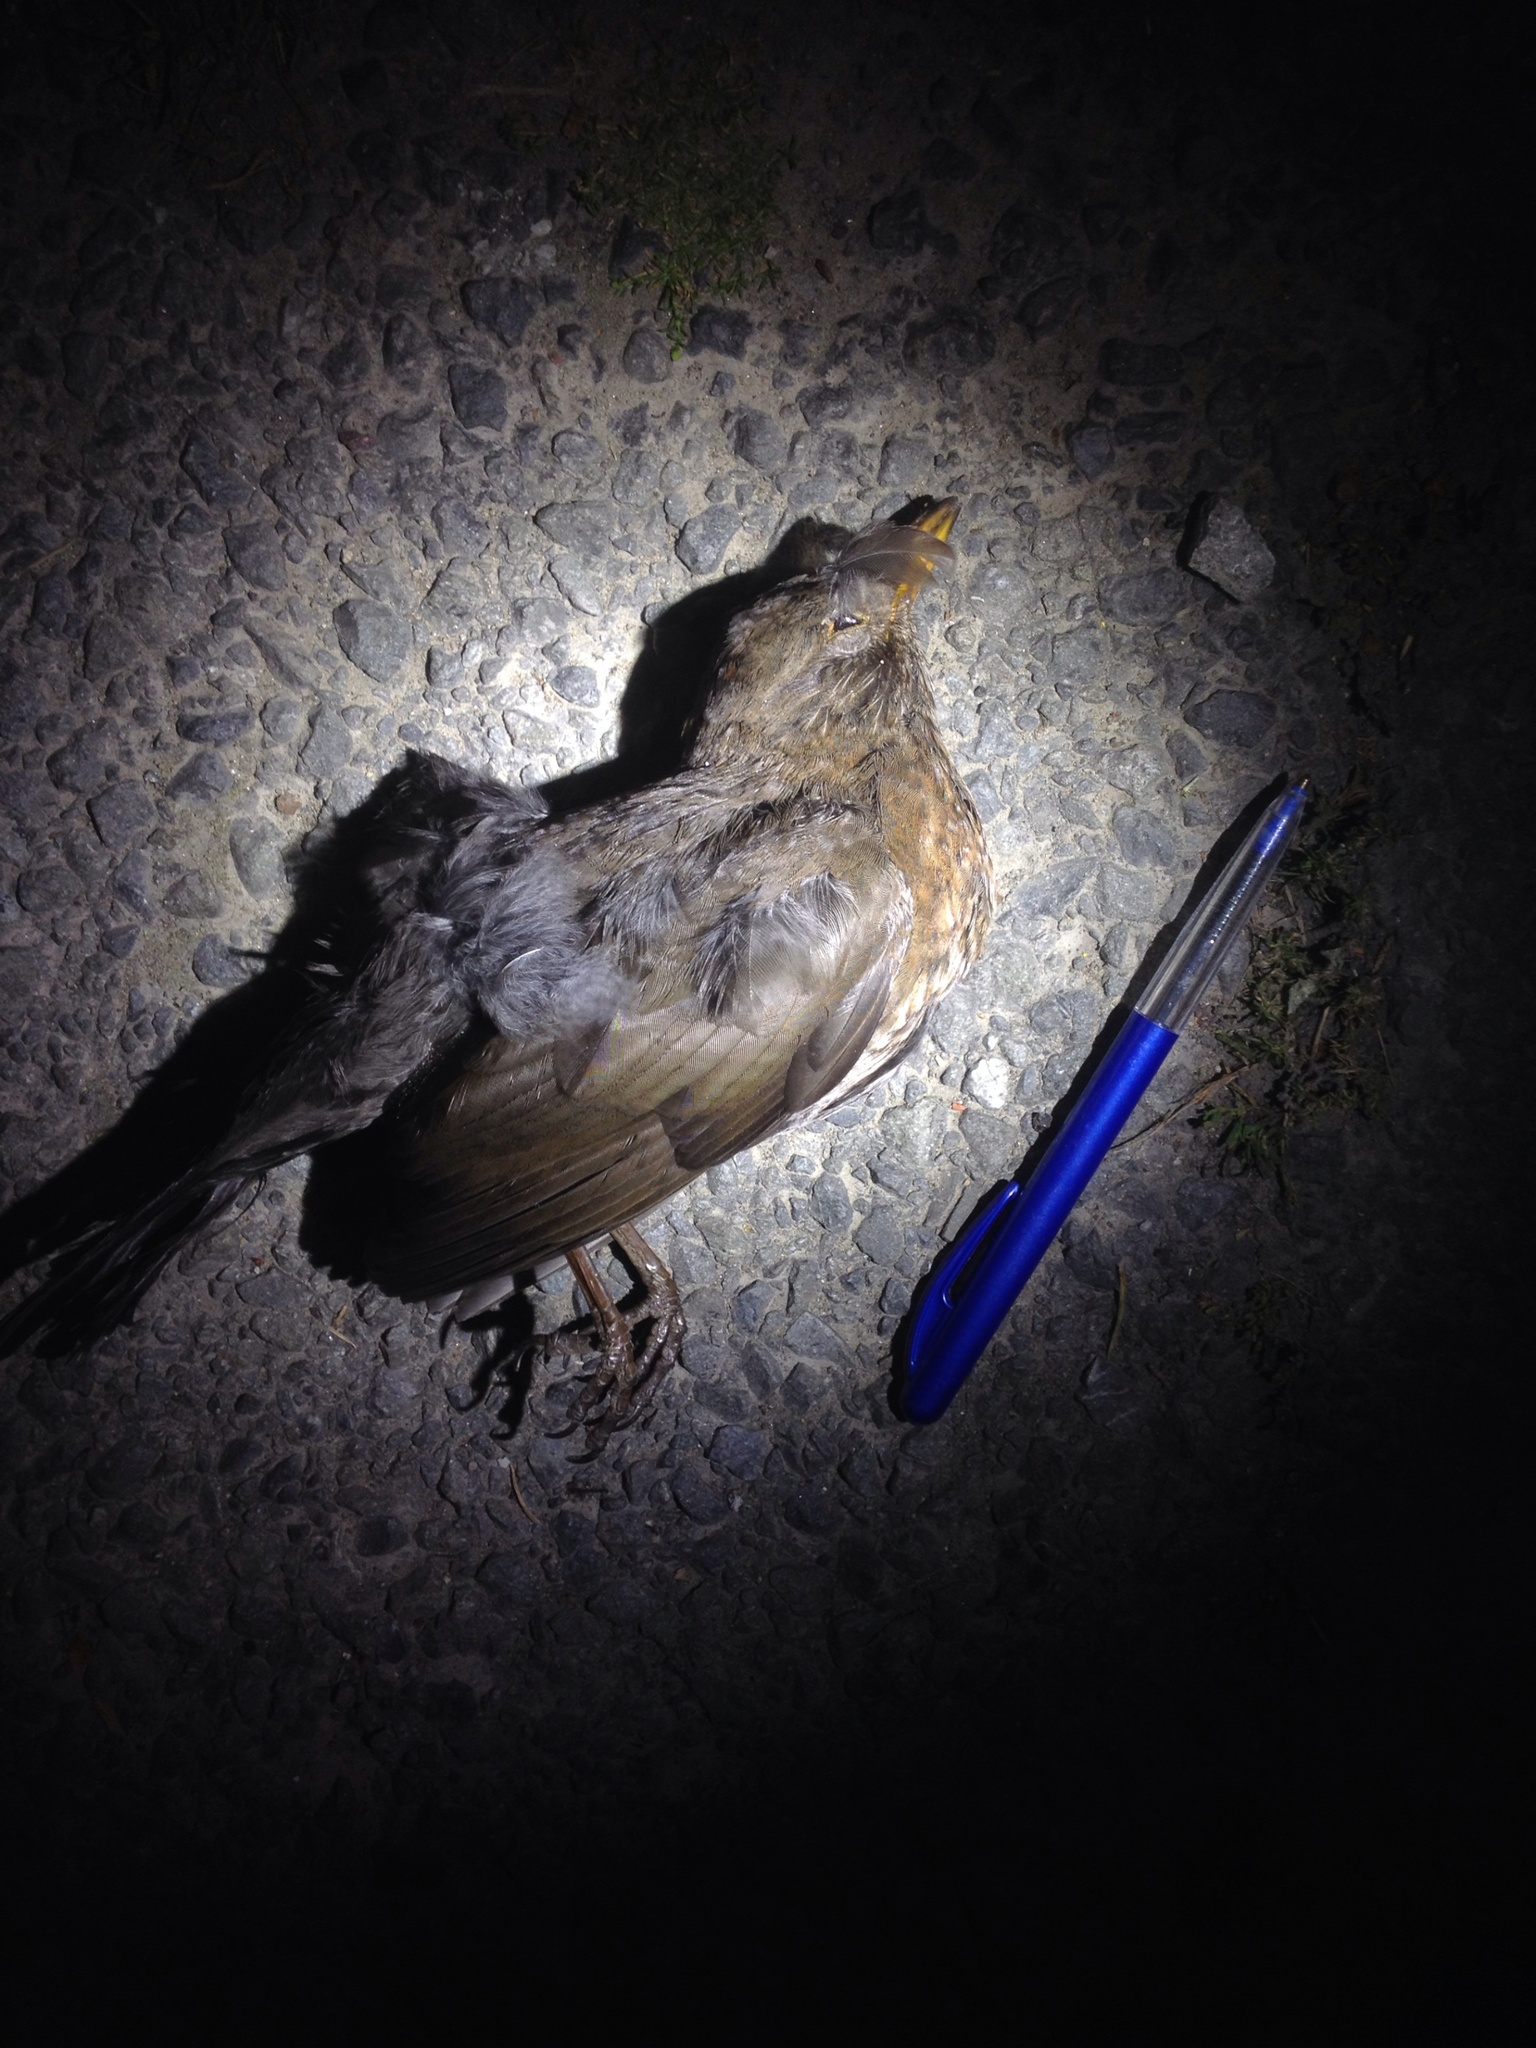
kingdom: Animalia
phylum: Chordata
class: Aves
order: Passeriformes
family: Turdidae
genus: Turdus
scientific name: Turdus merula
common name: Common blackbird
